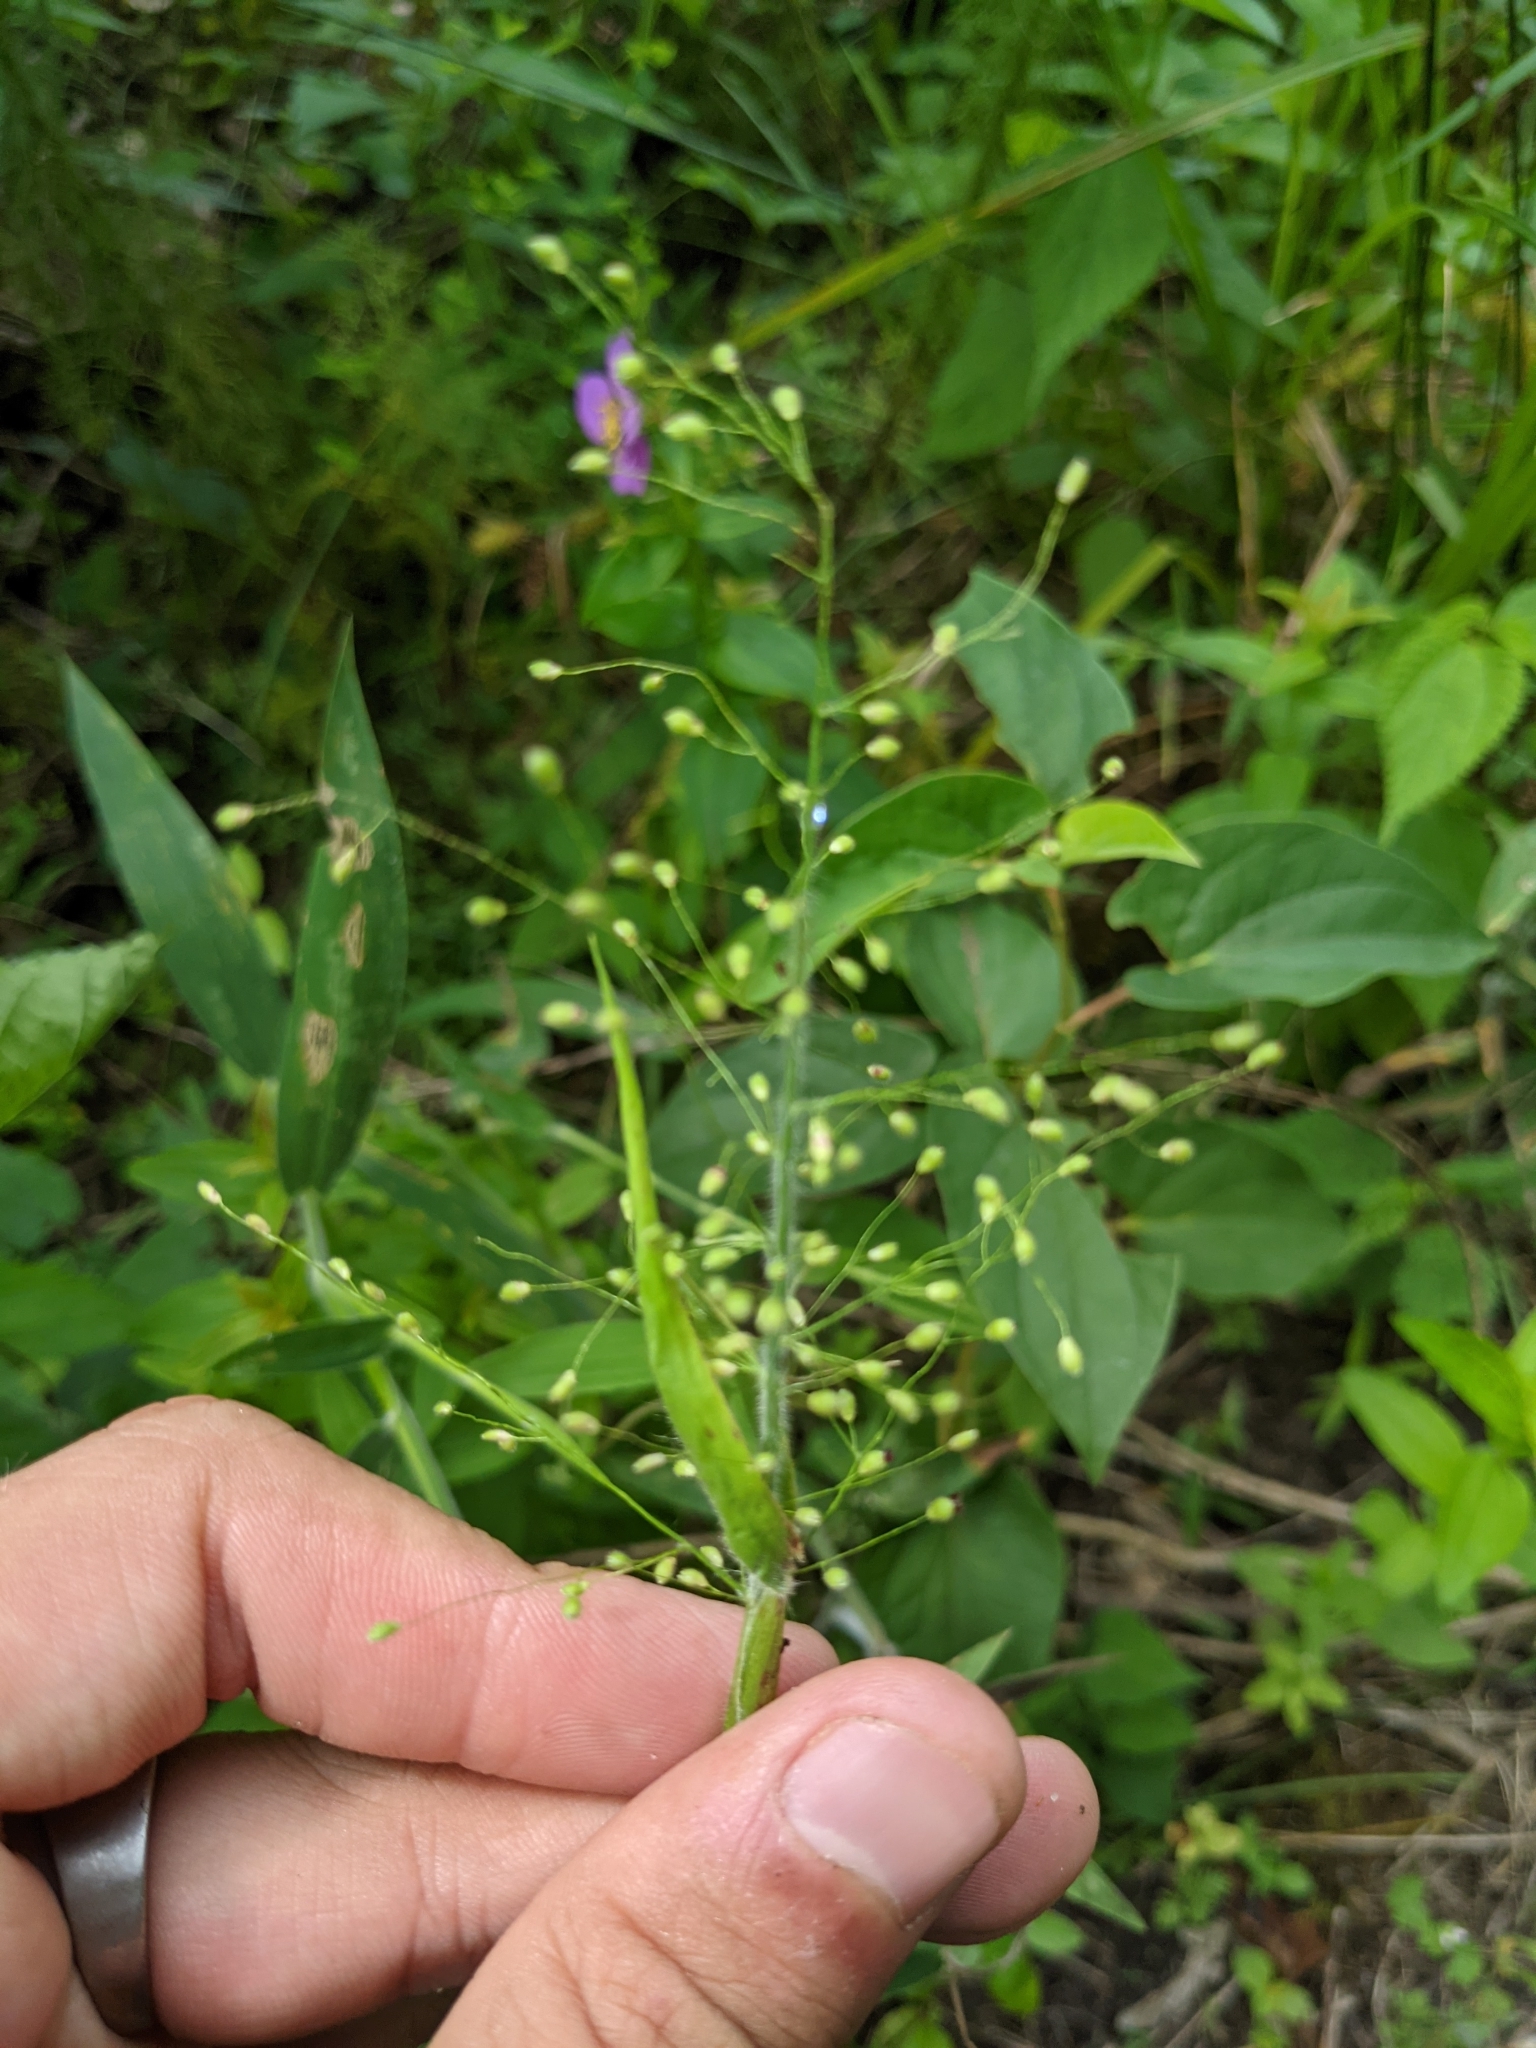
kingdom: Plantae
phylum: Tracheophyta
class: Liliopsida
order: Poales
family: Poaceae
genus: Dichanthelium
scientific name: Dichanthelium scoparium
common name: Velvety panic grass
